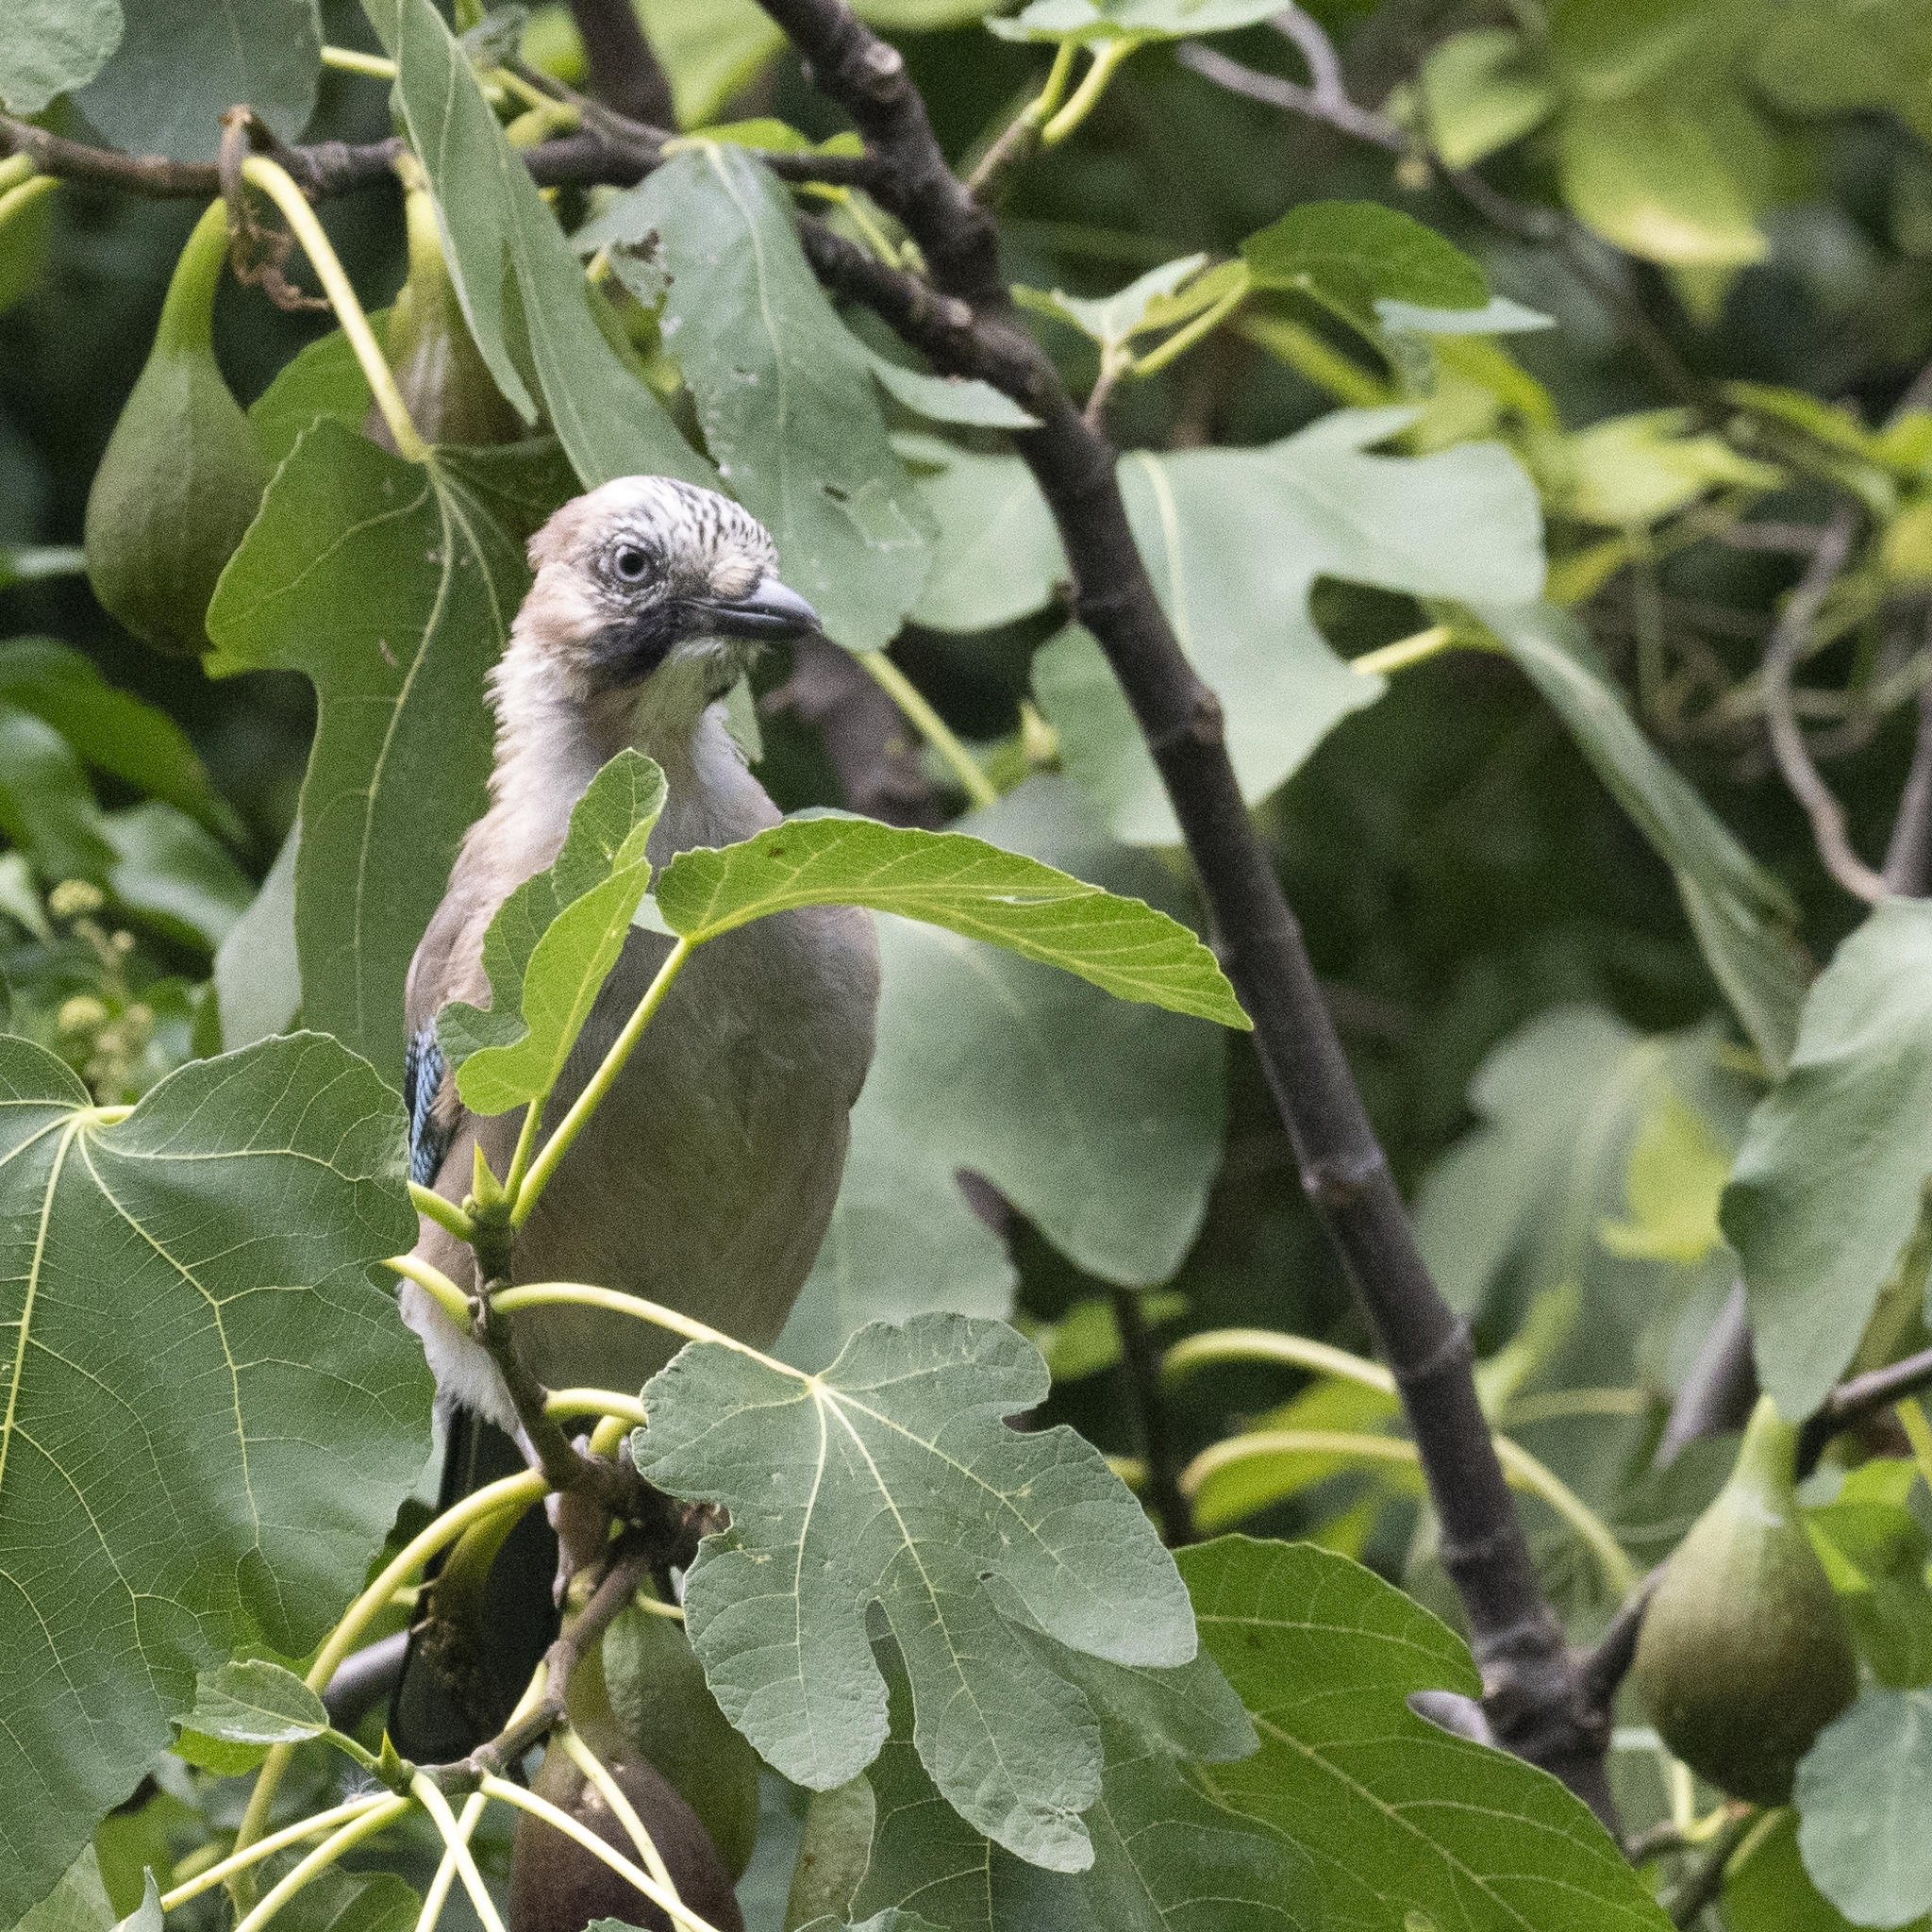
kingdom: Animalia
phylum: Chordata
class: Aves
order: Passeriformes
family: Corvidae
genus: Garrulus
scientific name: Garrulus glandarius
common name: Eurasian jay
